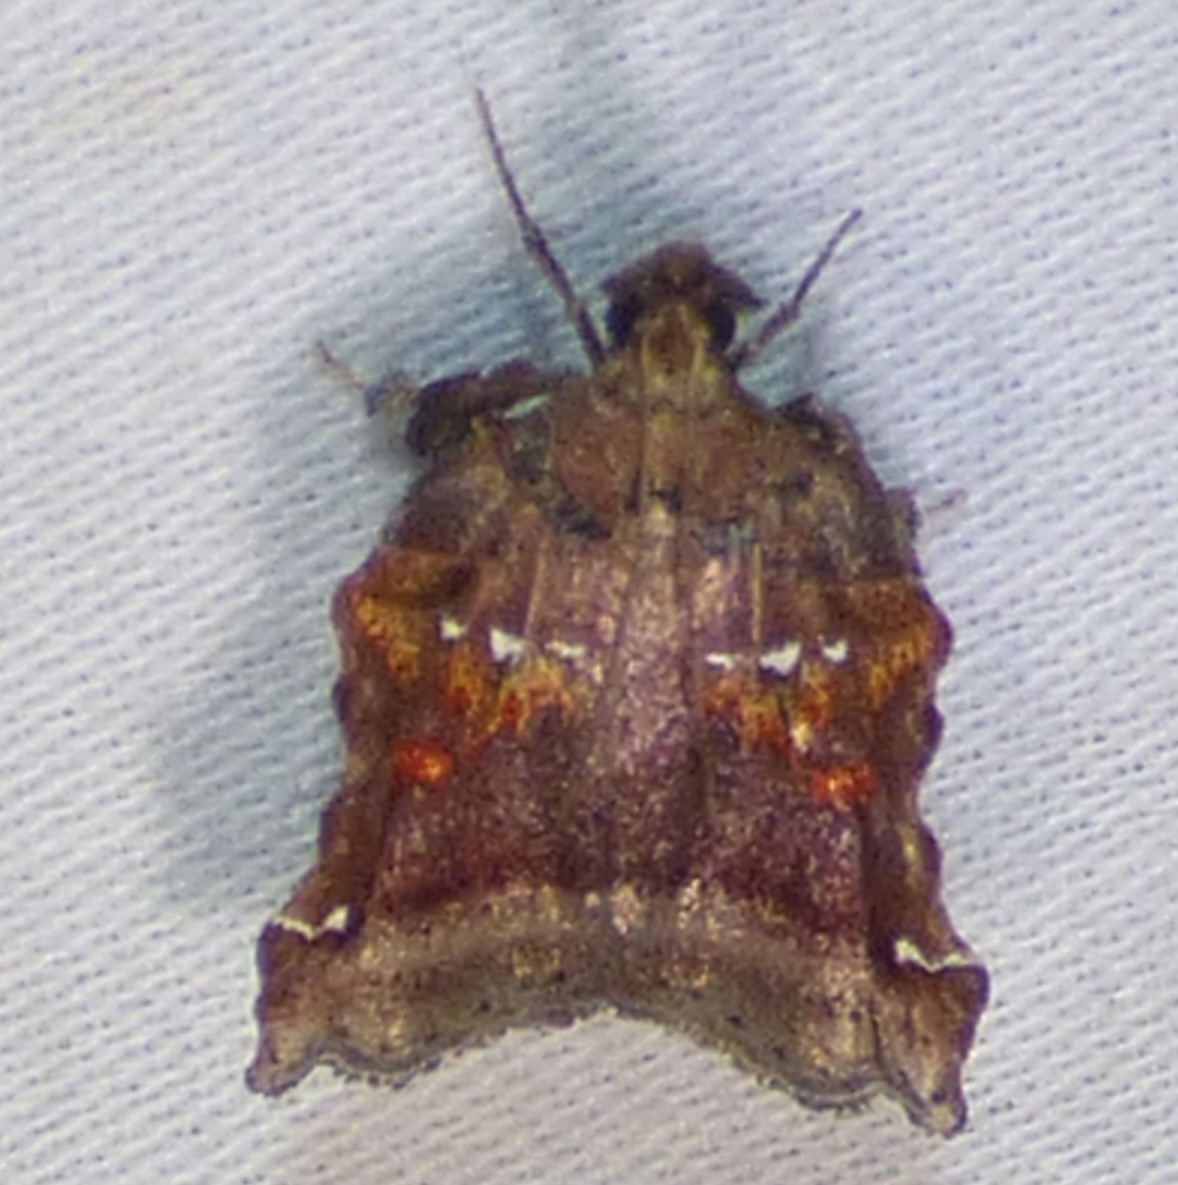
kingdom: Animalia
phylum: Arthropoda
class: Insecta
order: Lepidoptera
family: Pyralidae
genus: Clydonopteron
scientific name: Clydonopteron sacculana
